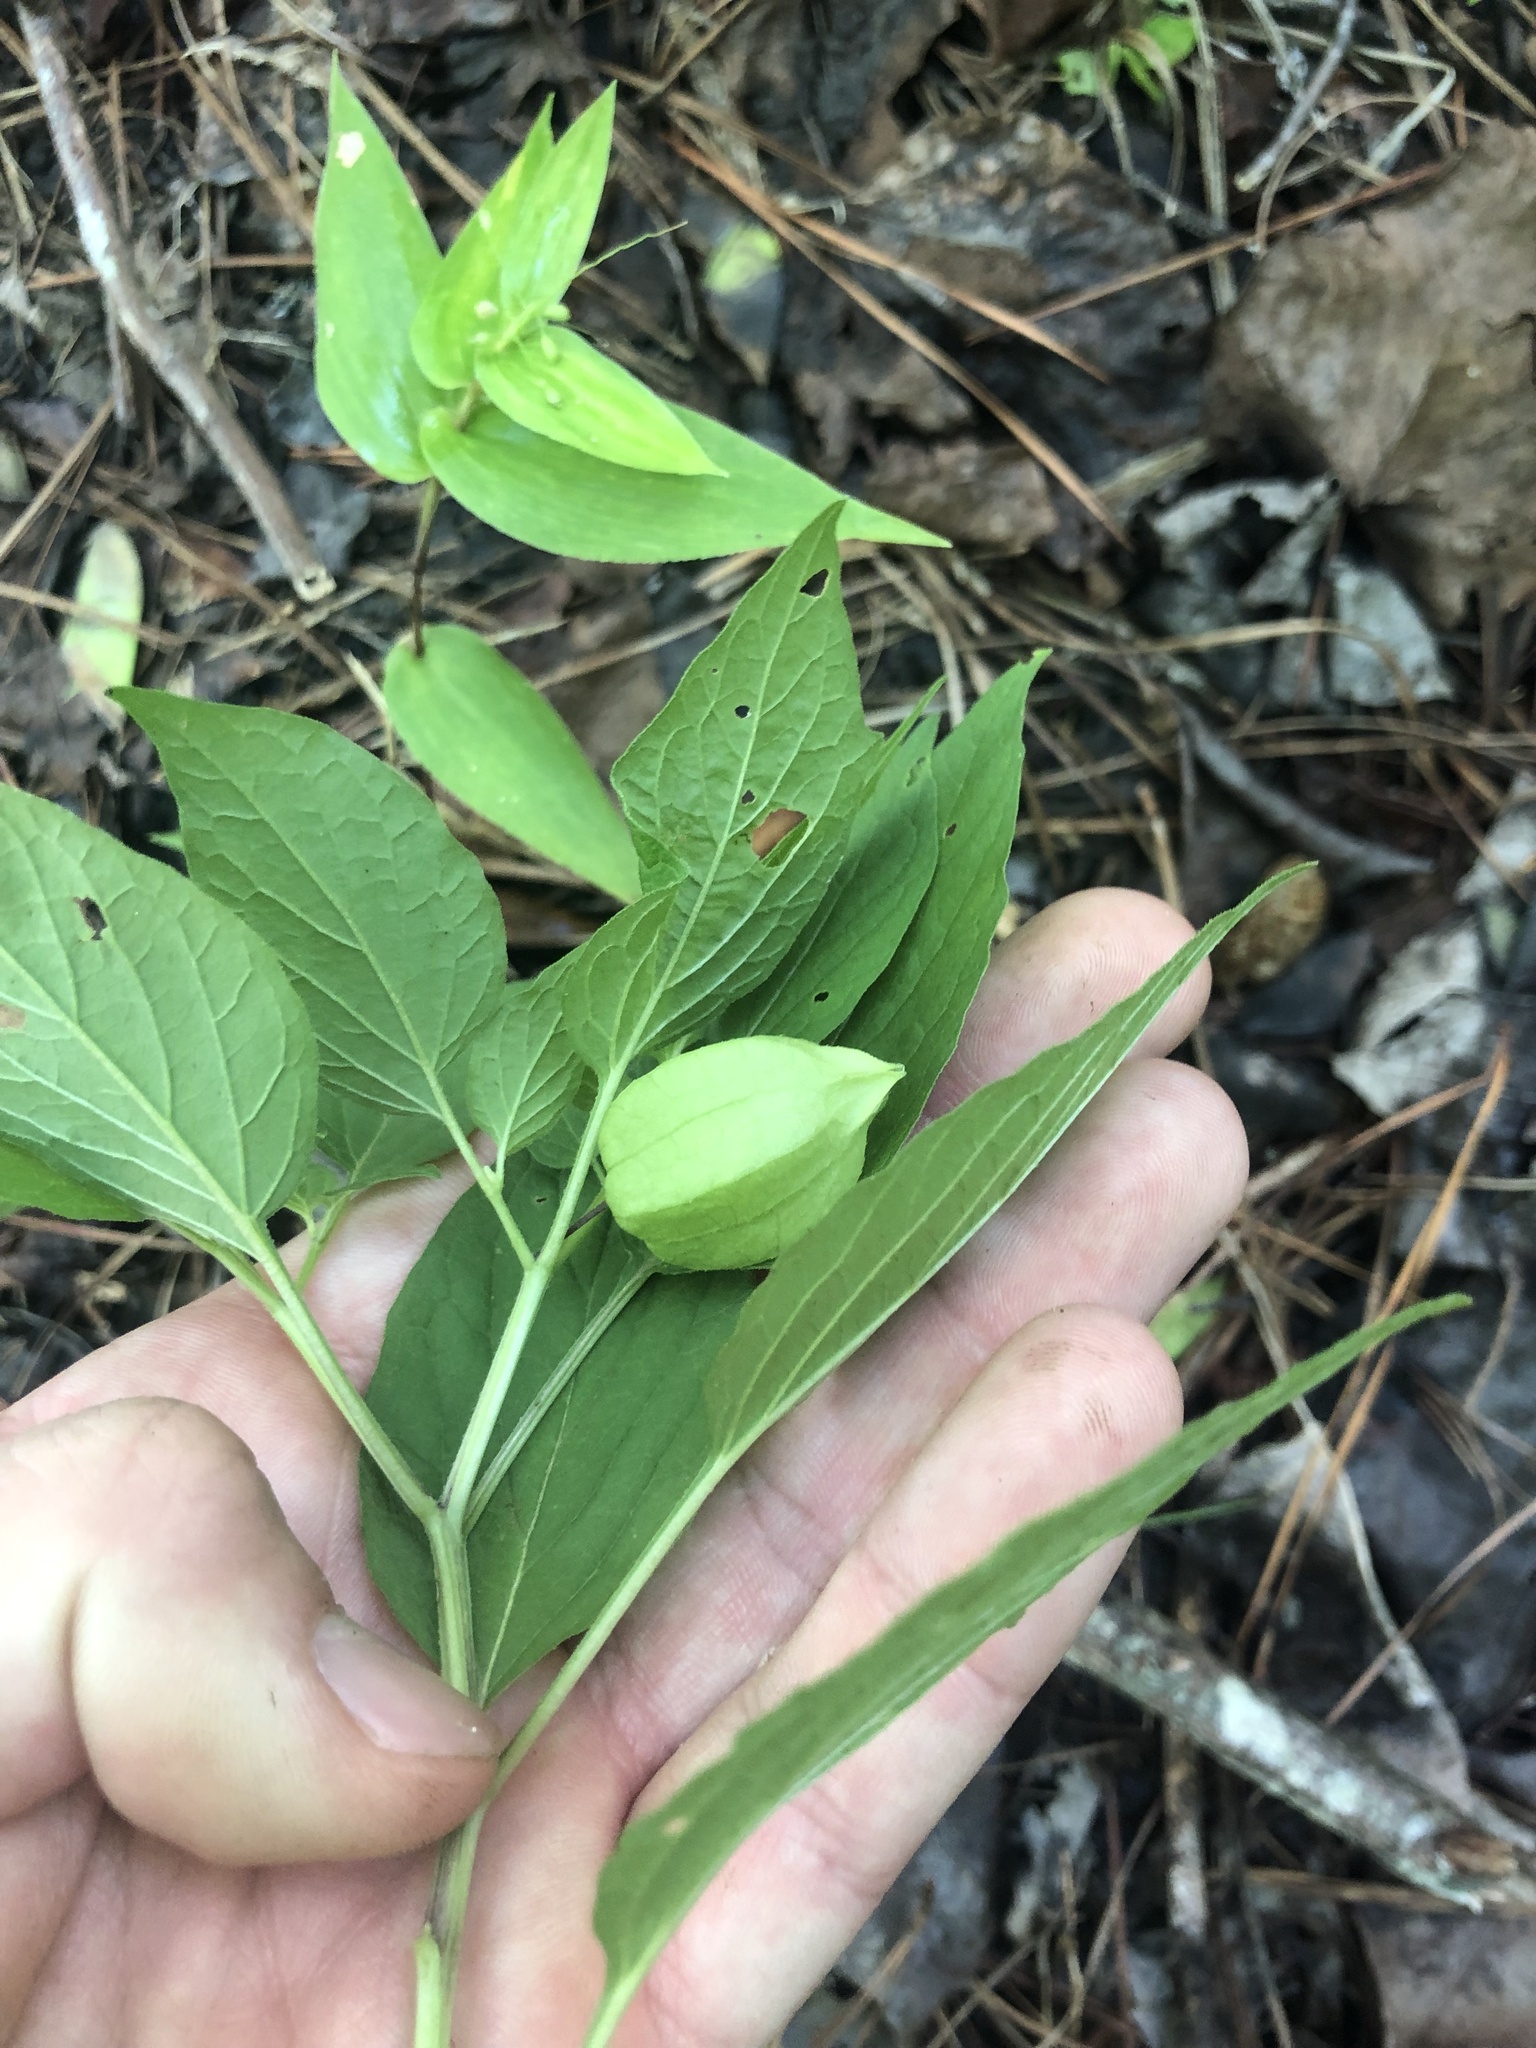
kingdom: Plantae
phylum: Tracheophyta
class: Magnoliopsida
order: Solanales
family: Solanaceae
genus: Physalis
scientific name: Physalis longifolia
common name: Common ground-cherry
